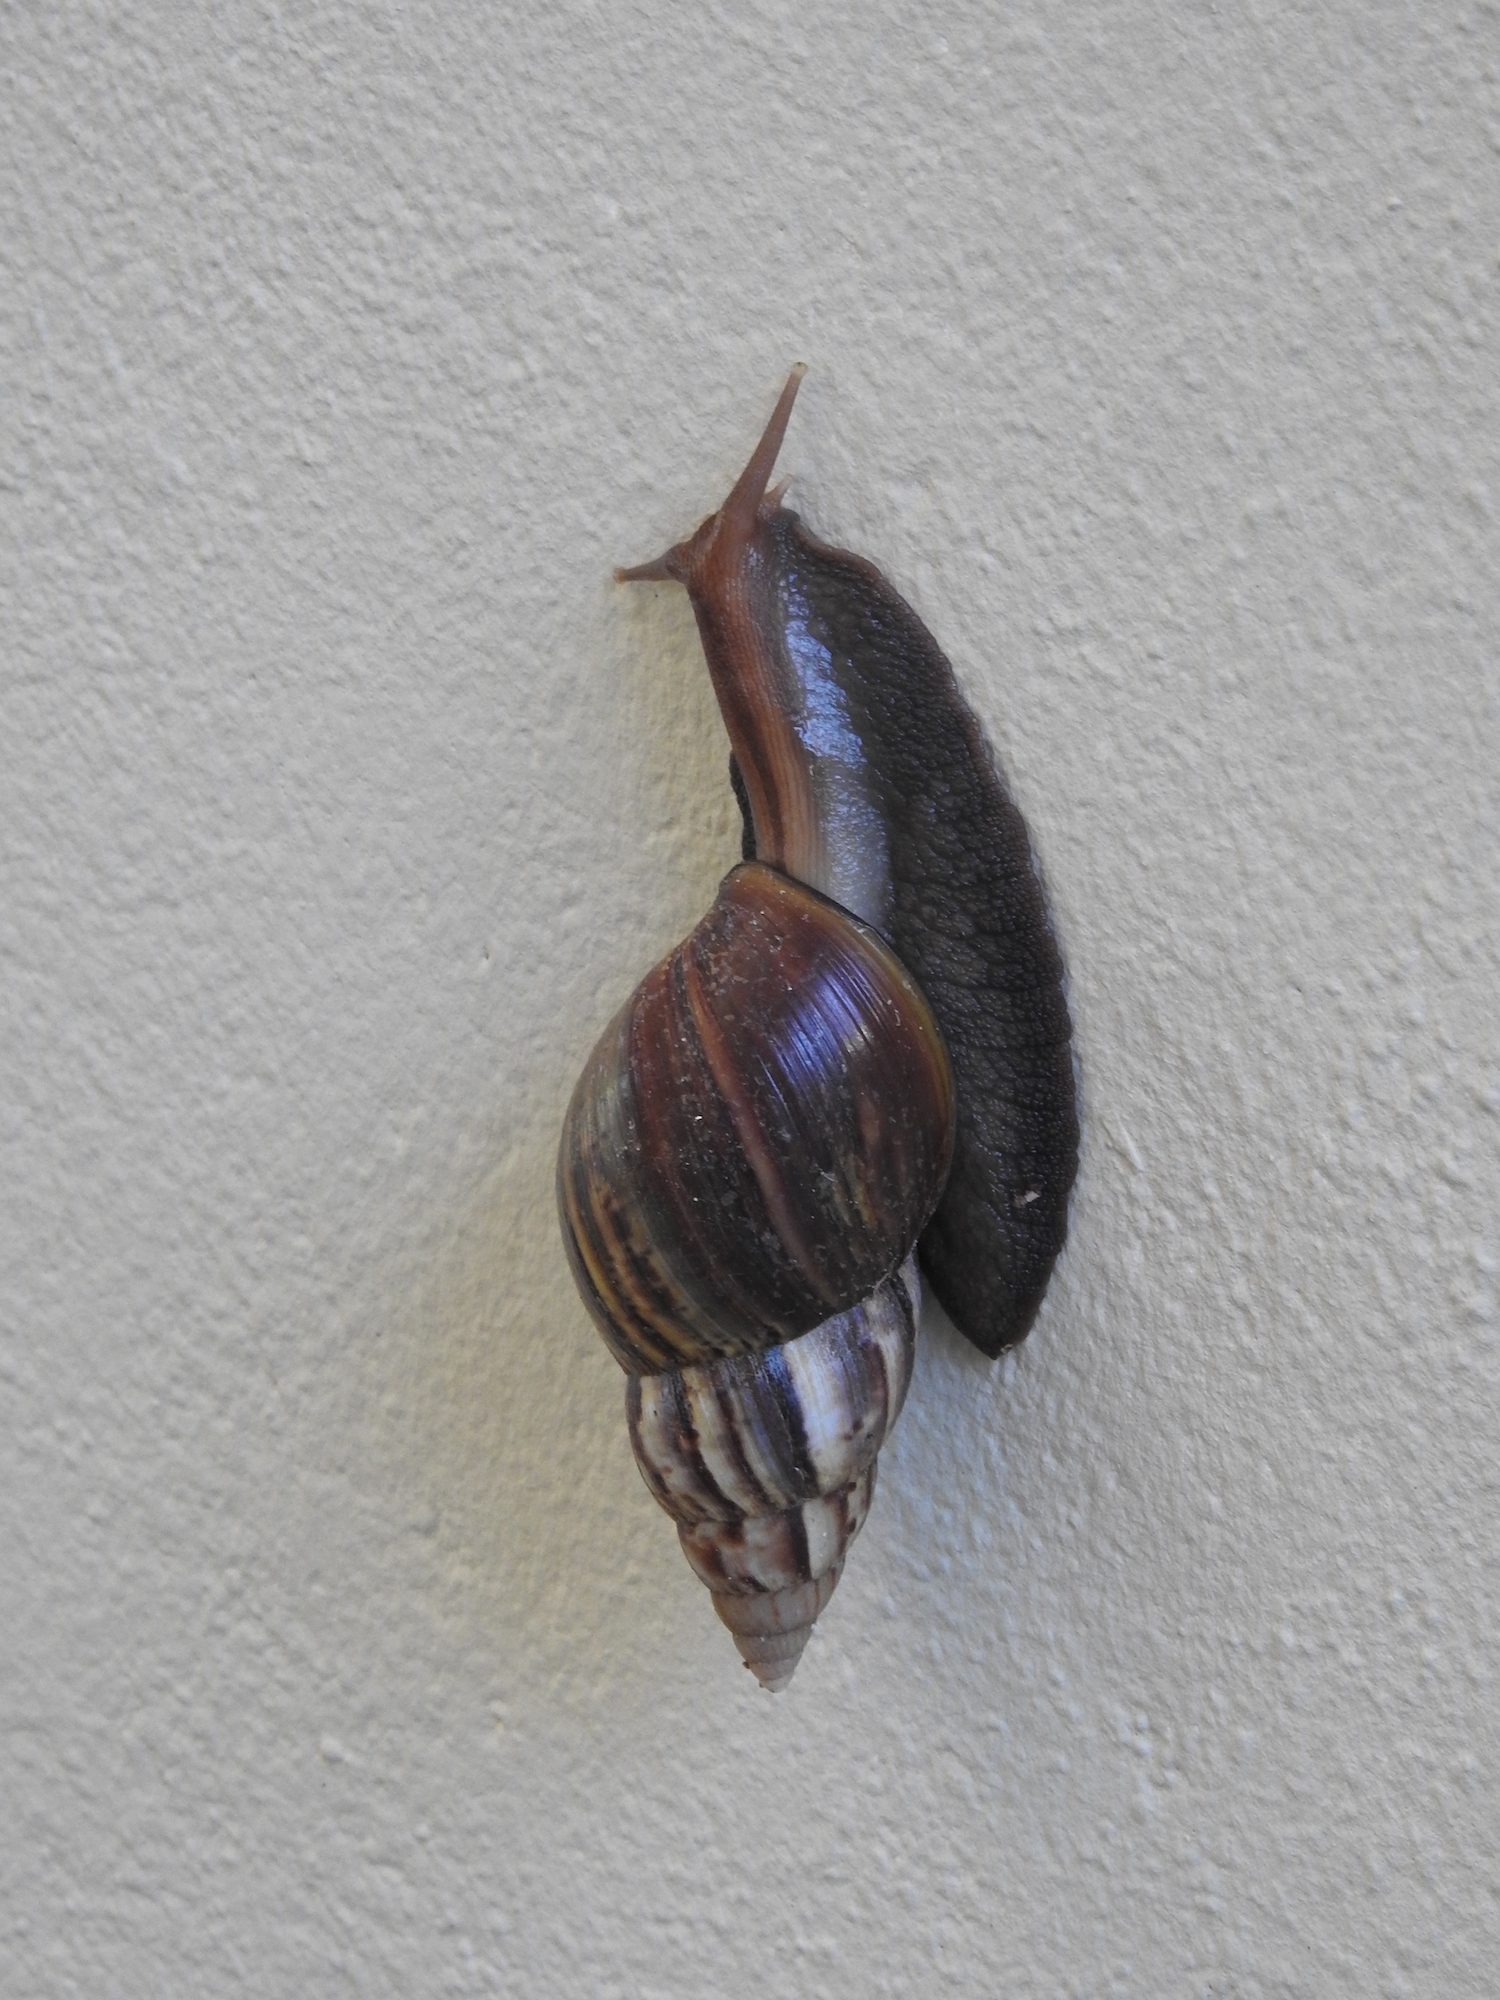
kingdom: Animalia
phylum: Mollusca
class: Gastropoda
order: Stylommatophora
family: Achatinidae
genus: Lissachatina
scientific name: Lissachatina fulica
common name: Giant african snail
